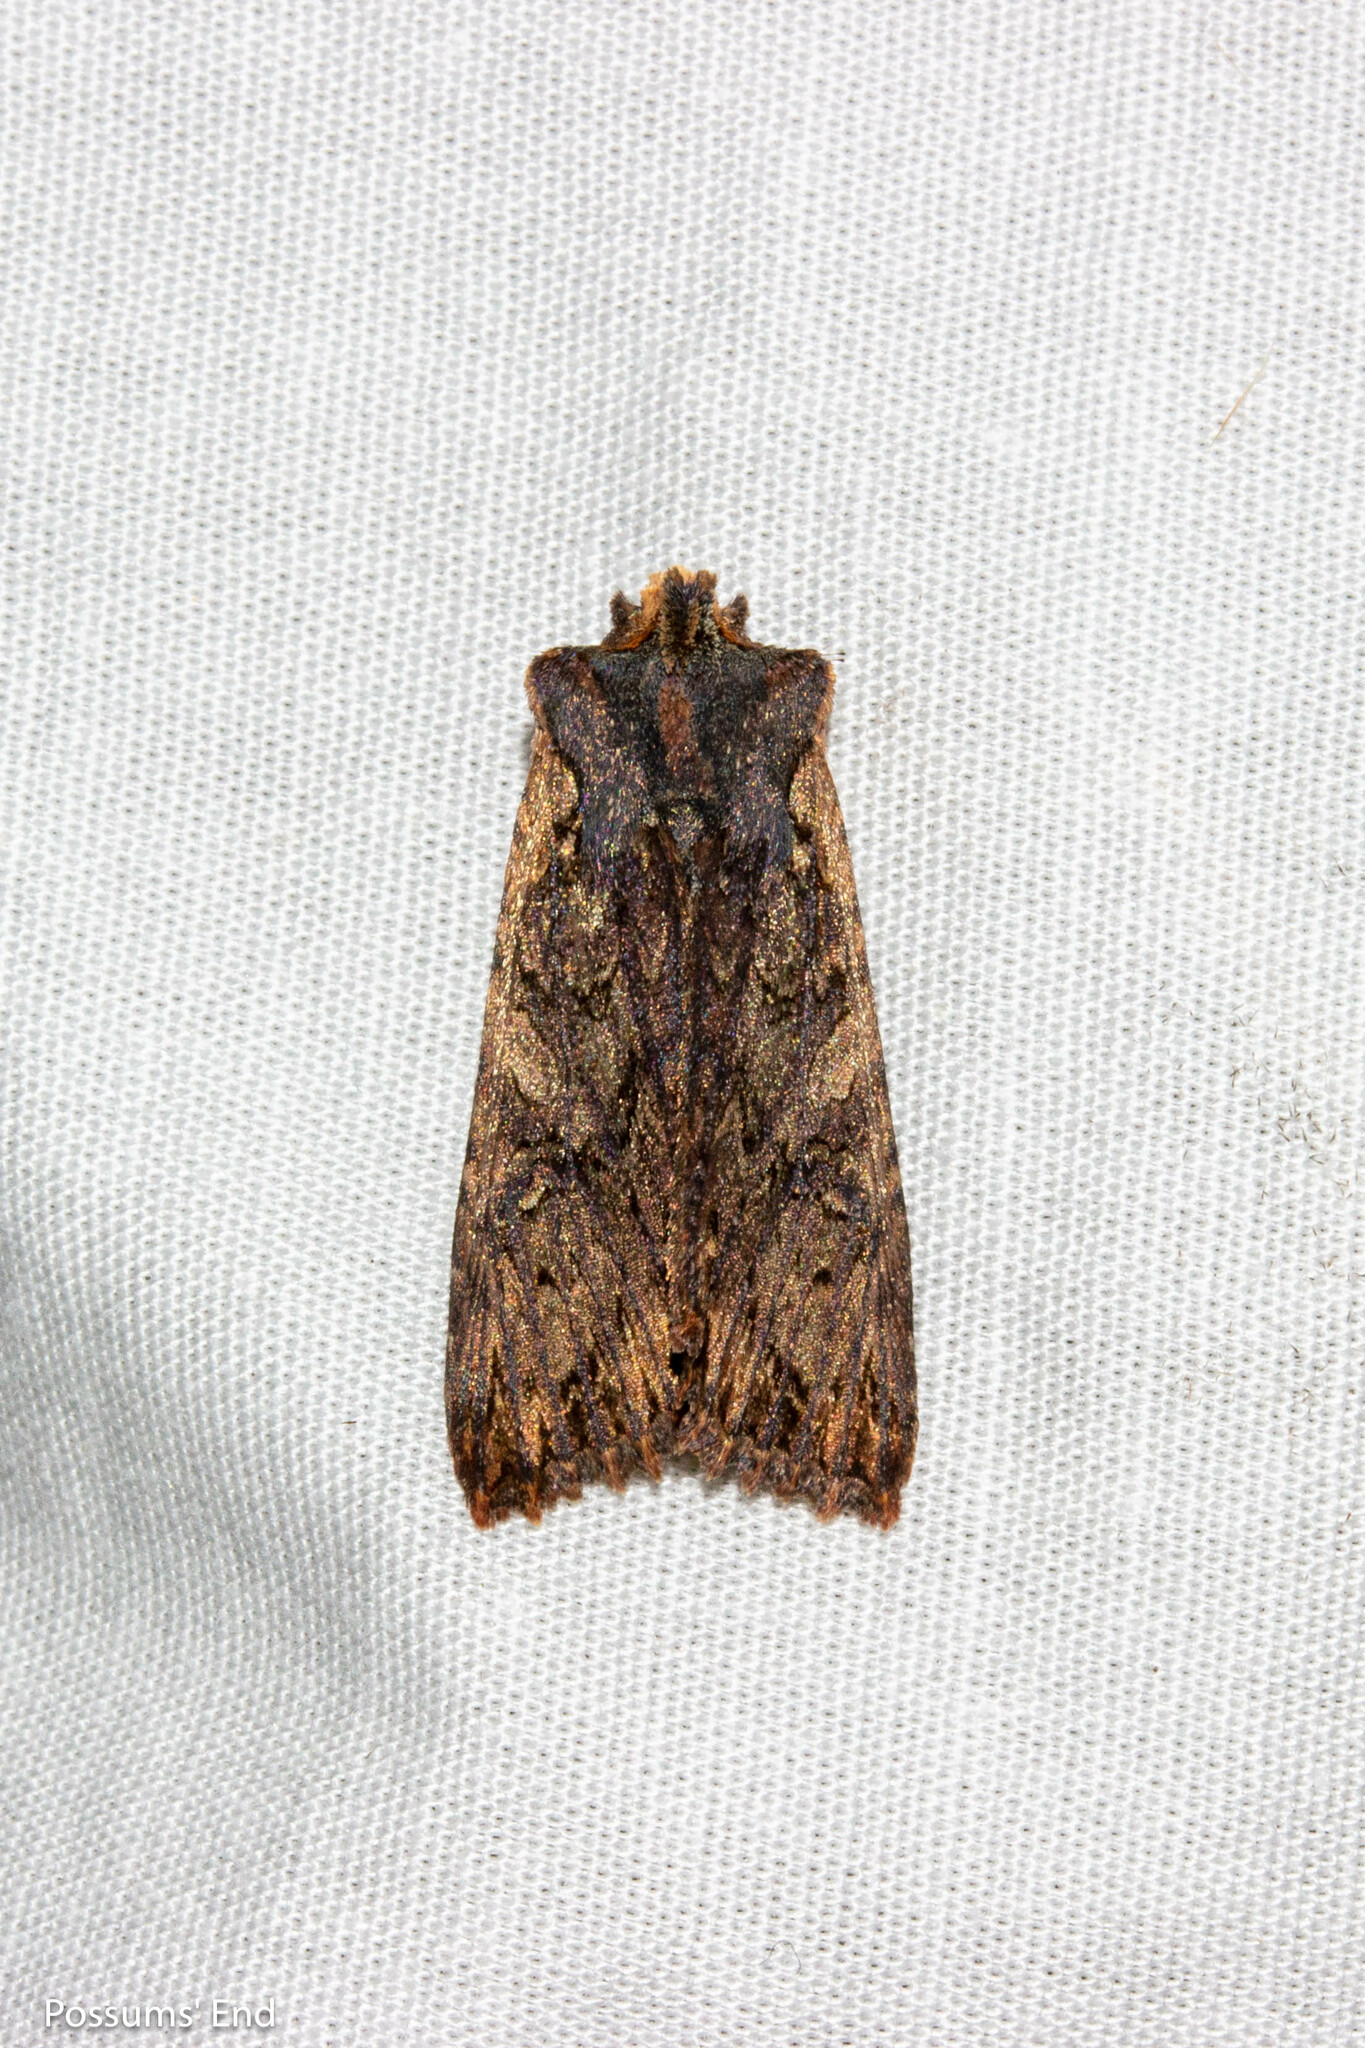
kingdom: Animalia
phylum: Arthropoda
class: Insecta
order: Lepidoptera
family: Noctuidae
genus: Meterana
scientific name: Meterana alcyone
